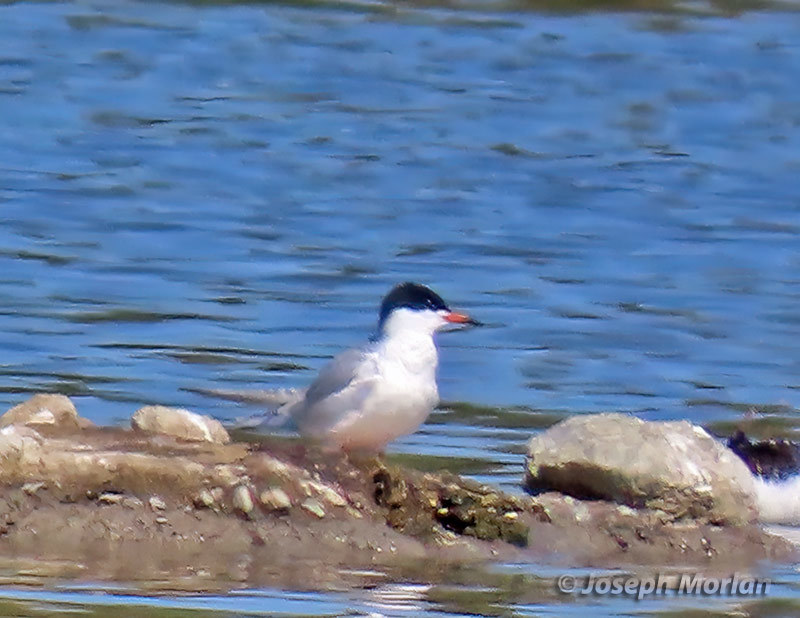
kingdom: Animalia
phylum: Chordata
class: Aves
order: Charadriiformes
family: Laridae
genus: Sterna
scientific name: Sterna forsteri
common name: Forster's tern
